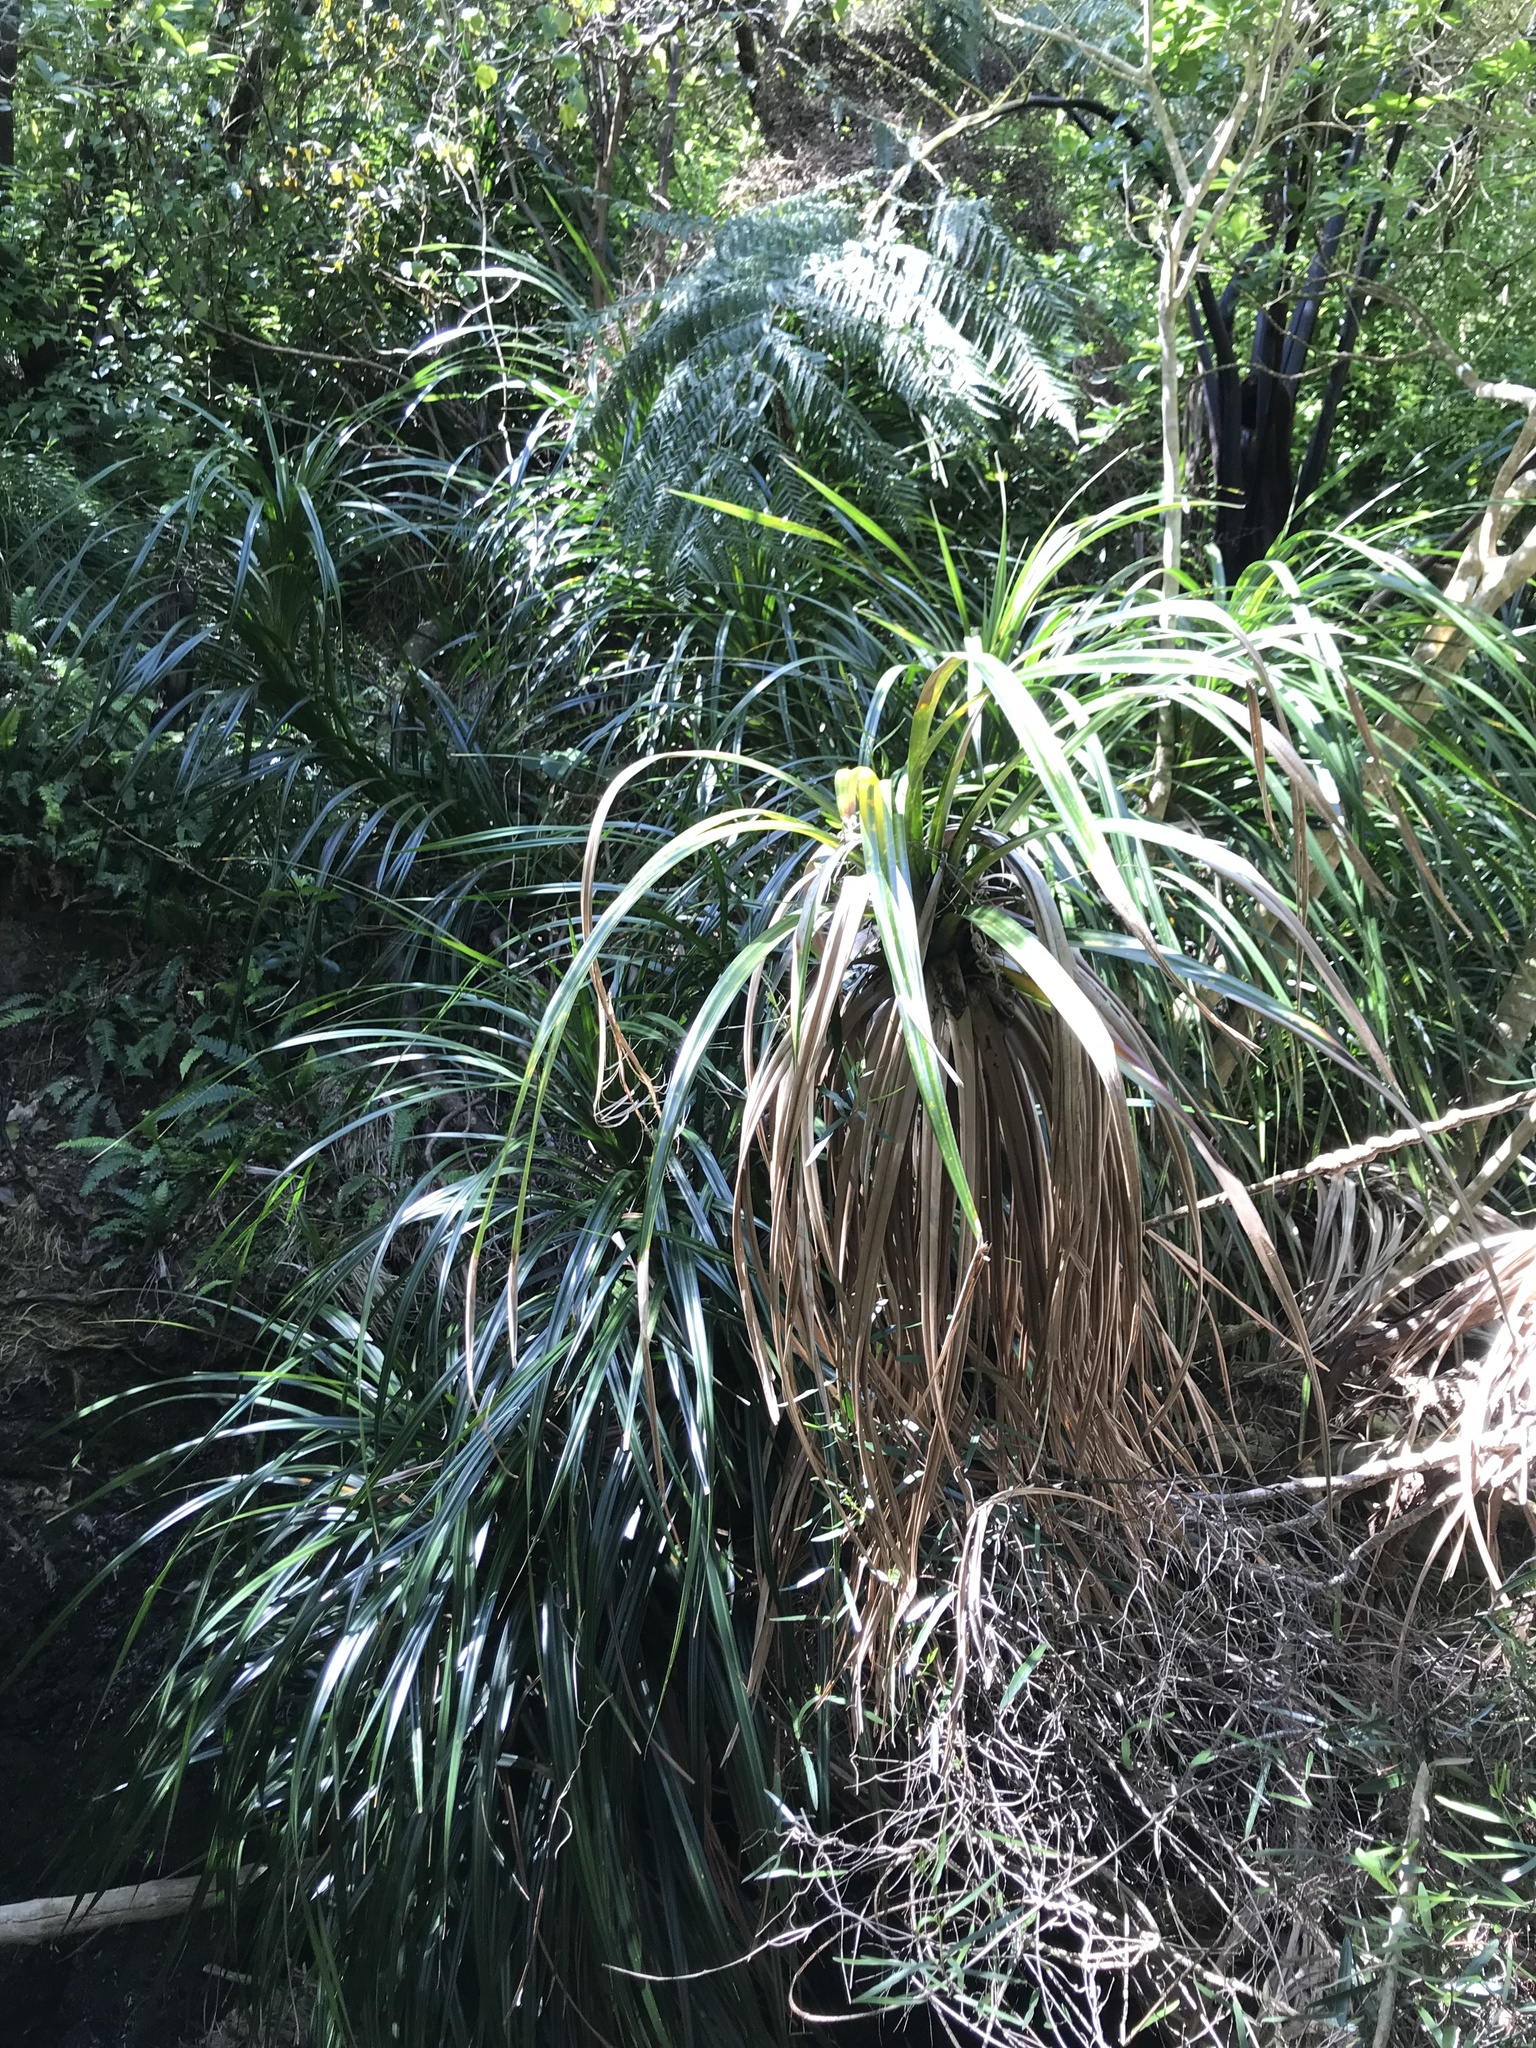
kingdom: Plantae
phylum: Tracheophyta
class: Liliopsida
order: Pandanales
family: Pandanaceae
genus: Freycinetia
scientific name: Freycinetia banksii
